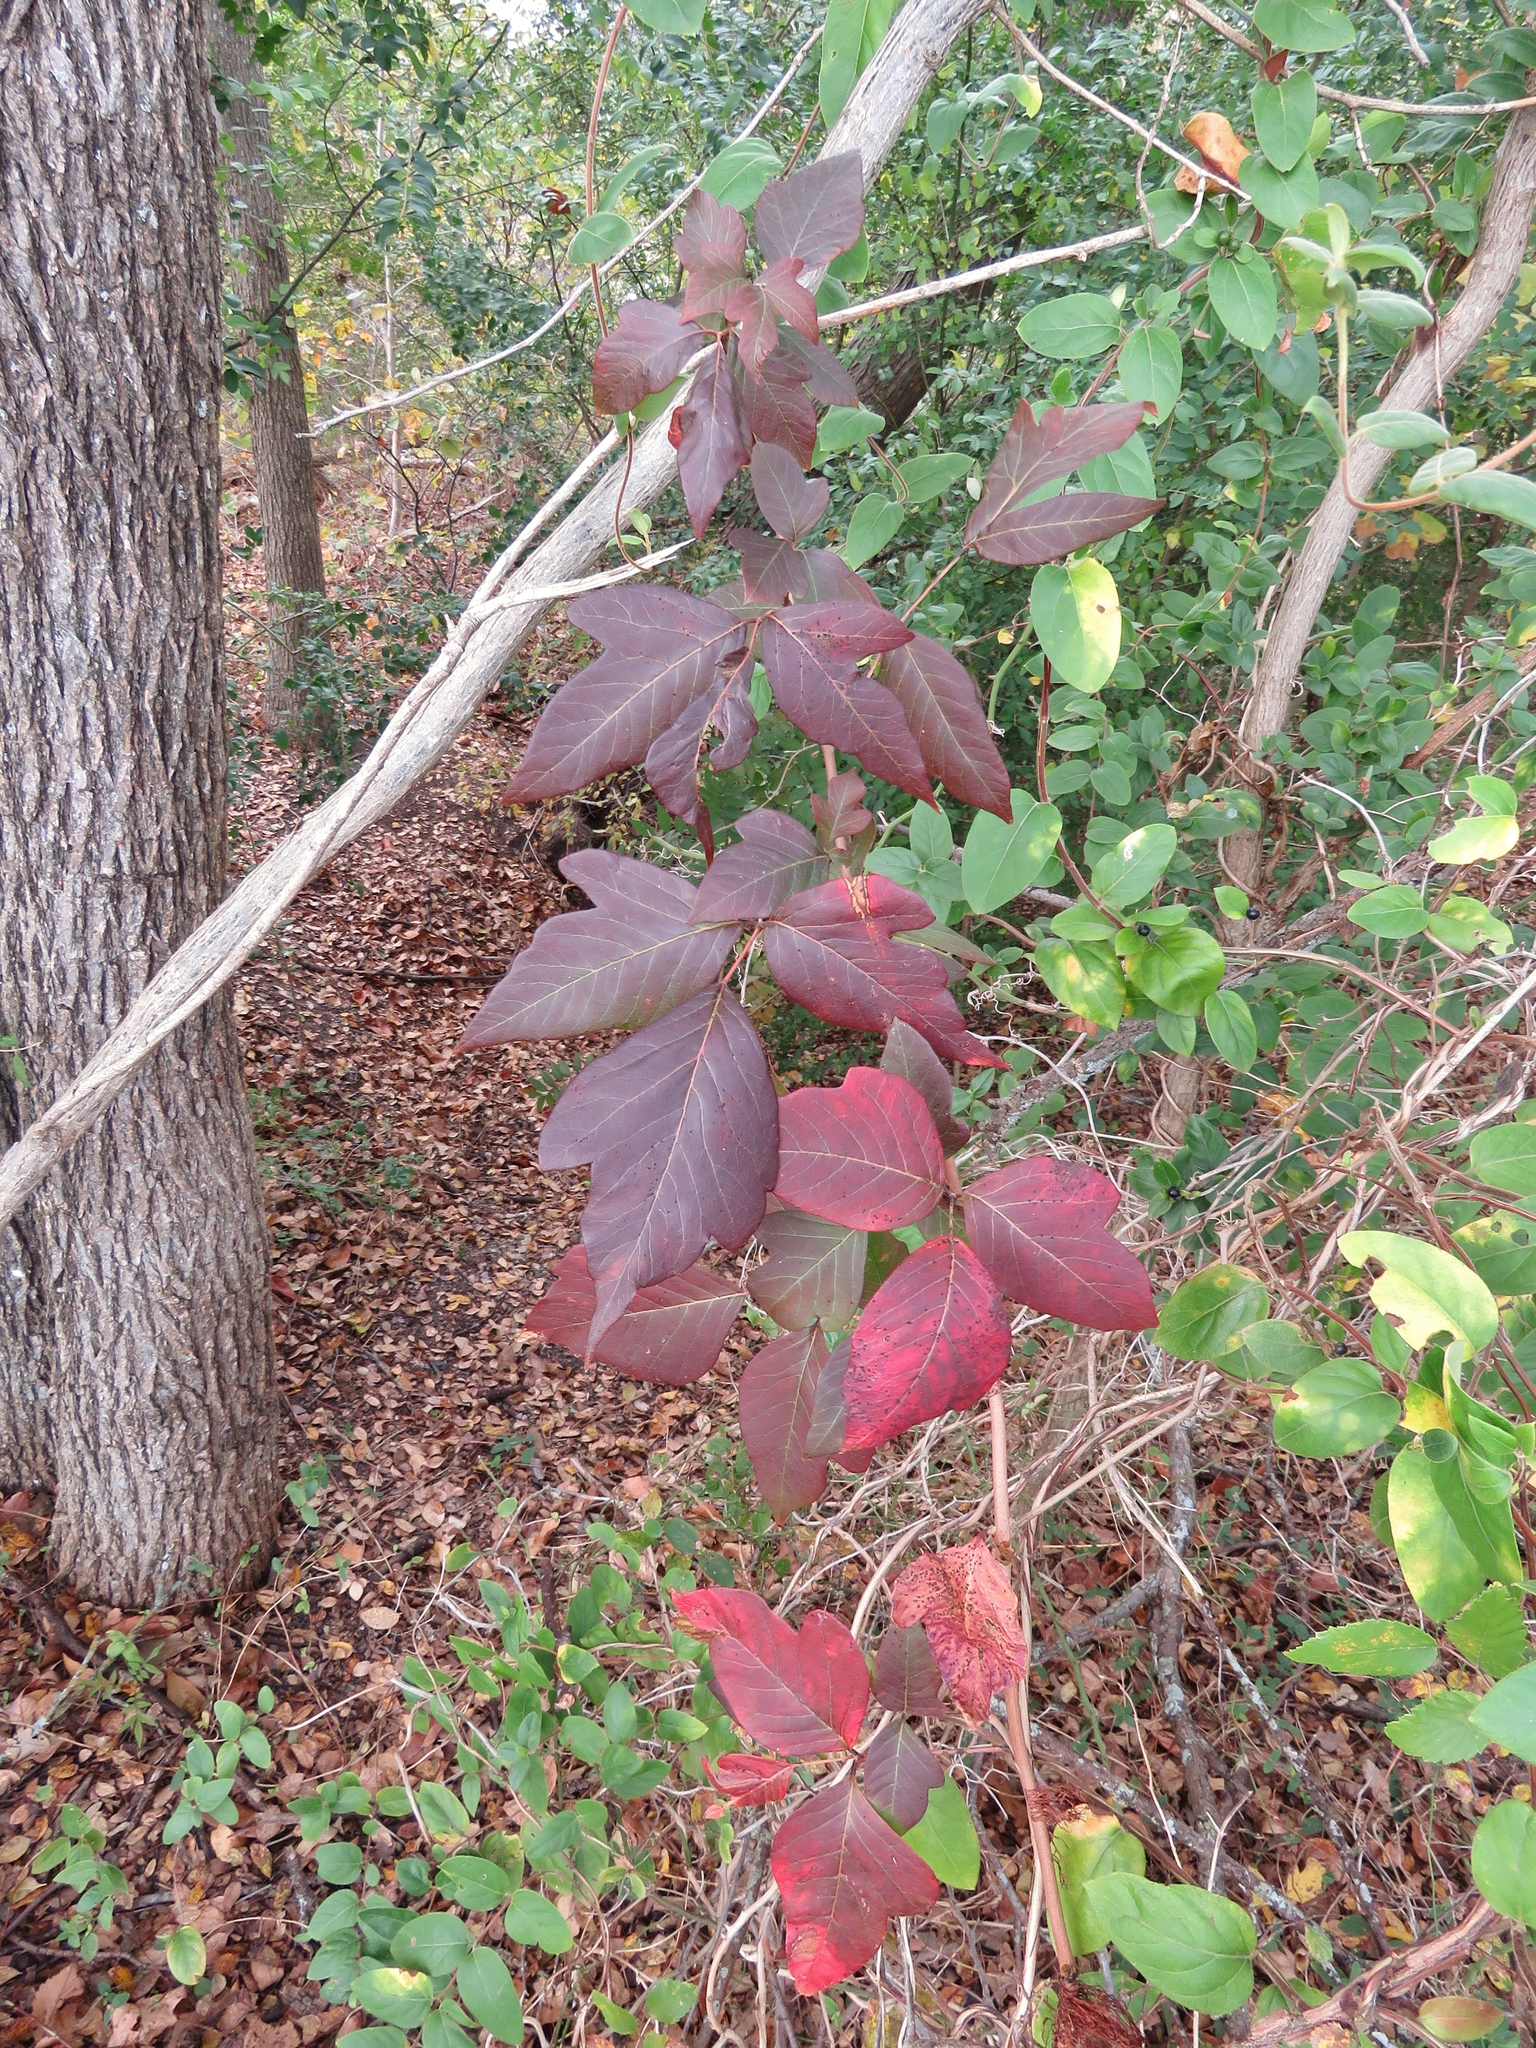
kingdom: Plantae
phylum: Tracheophyta
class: Magnoliopsida
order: Sapindales
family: Anacardiaceae
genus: Toxicodendron
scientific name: Toxicodendron radicans
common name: Poison ivy
